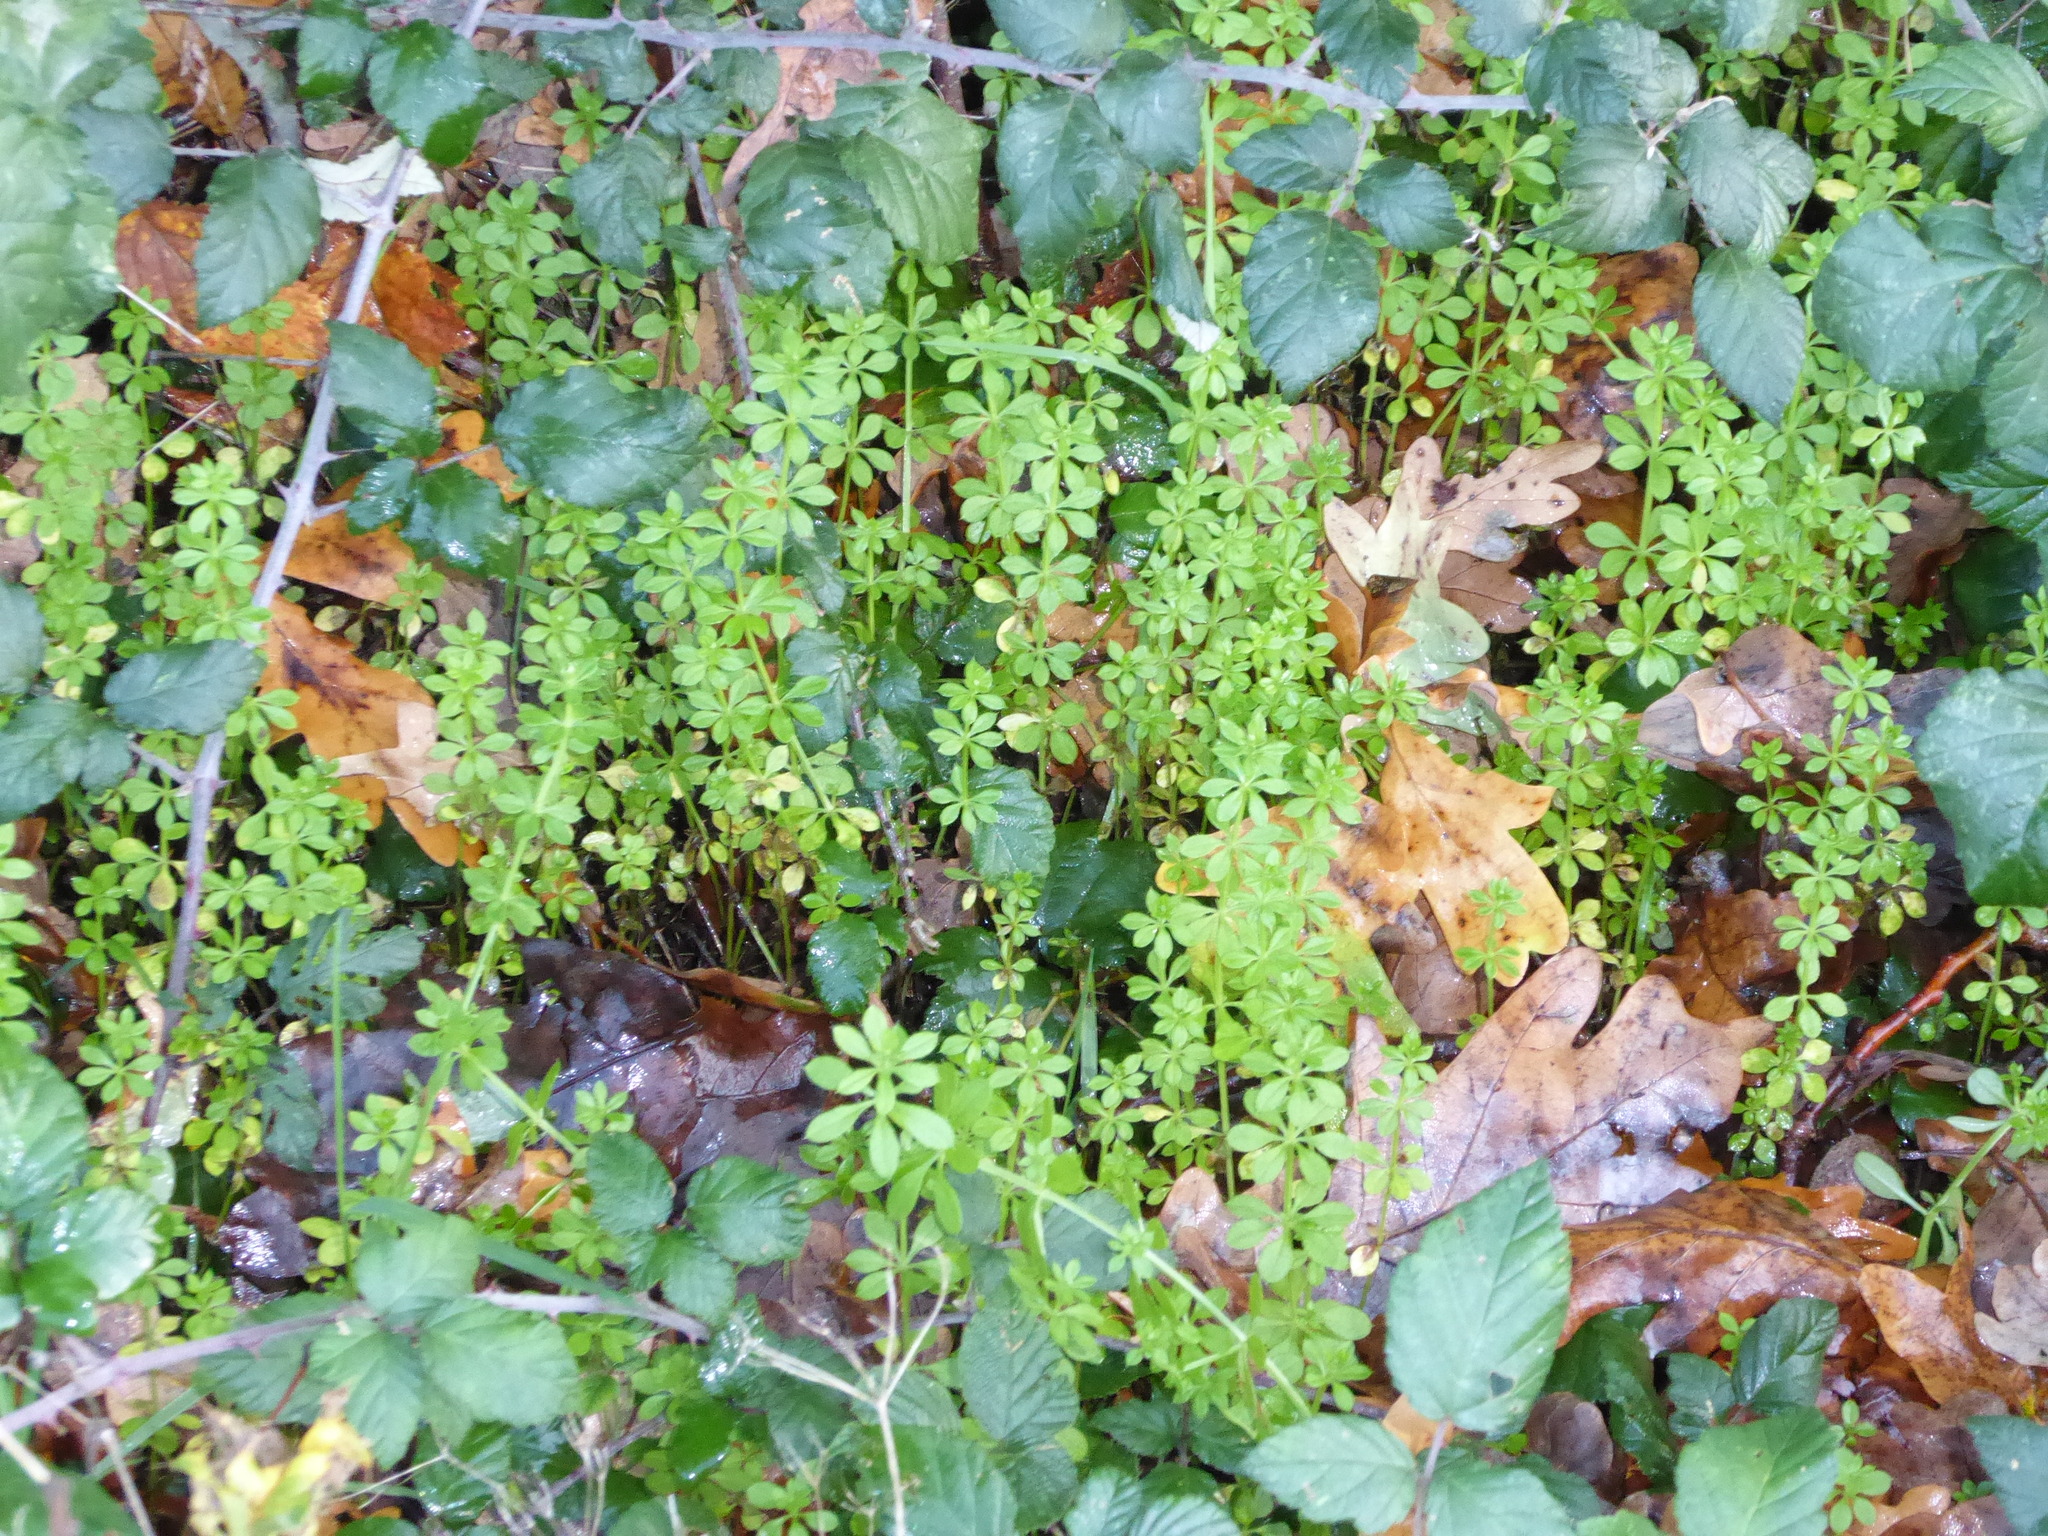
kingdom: Plantae
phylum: Tracheophyta
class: Magnoliopsida
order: Gentianales
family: Rubiaceae
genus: Galium
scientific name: Galium aparine
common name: Cleavers
